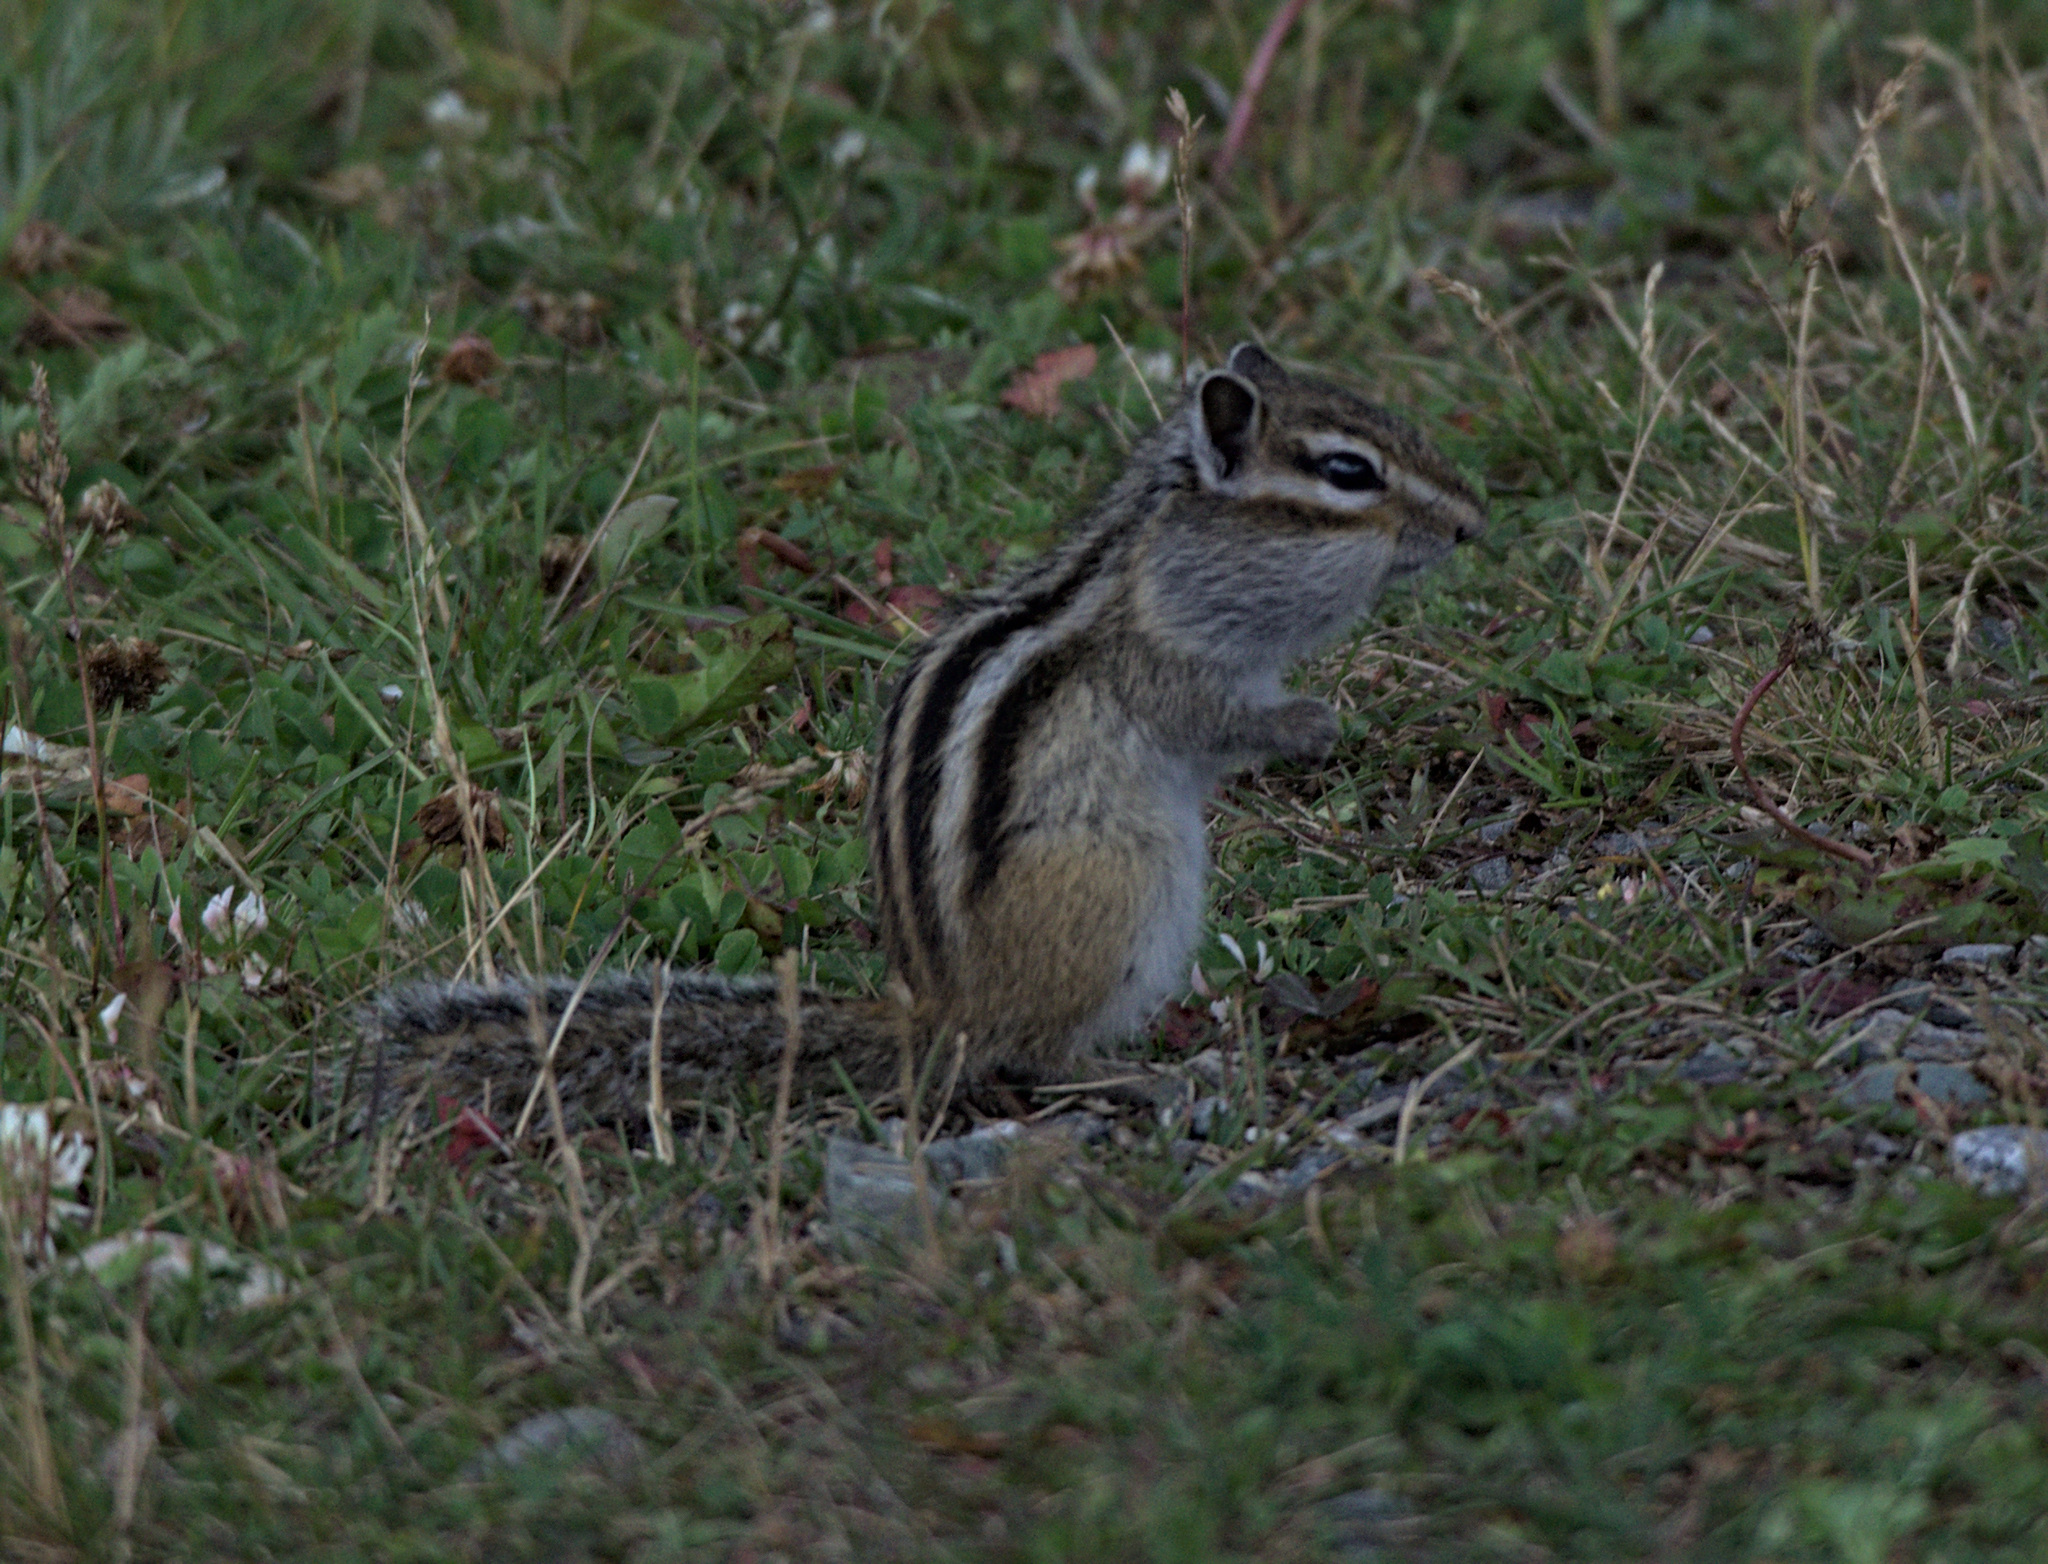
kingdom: Animalia
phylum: Chordata
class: Mammalia
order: Rodentia
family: Sciuridae
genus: Tamias
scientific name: Tamias sibiricus
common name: Siberian chipmunk
